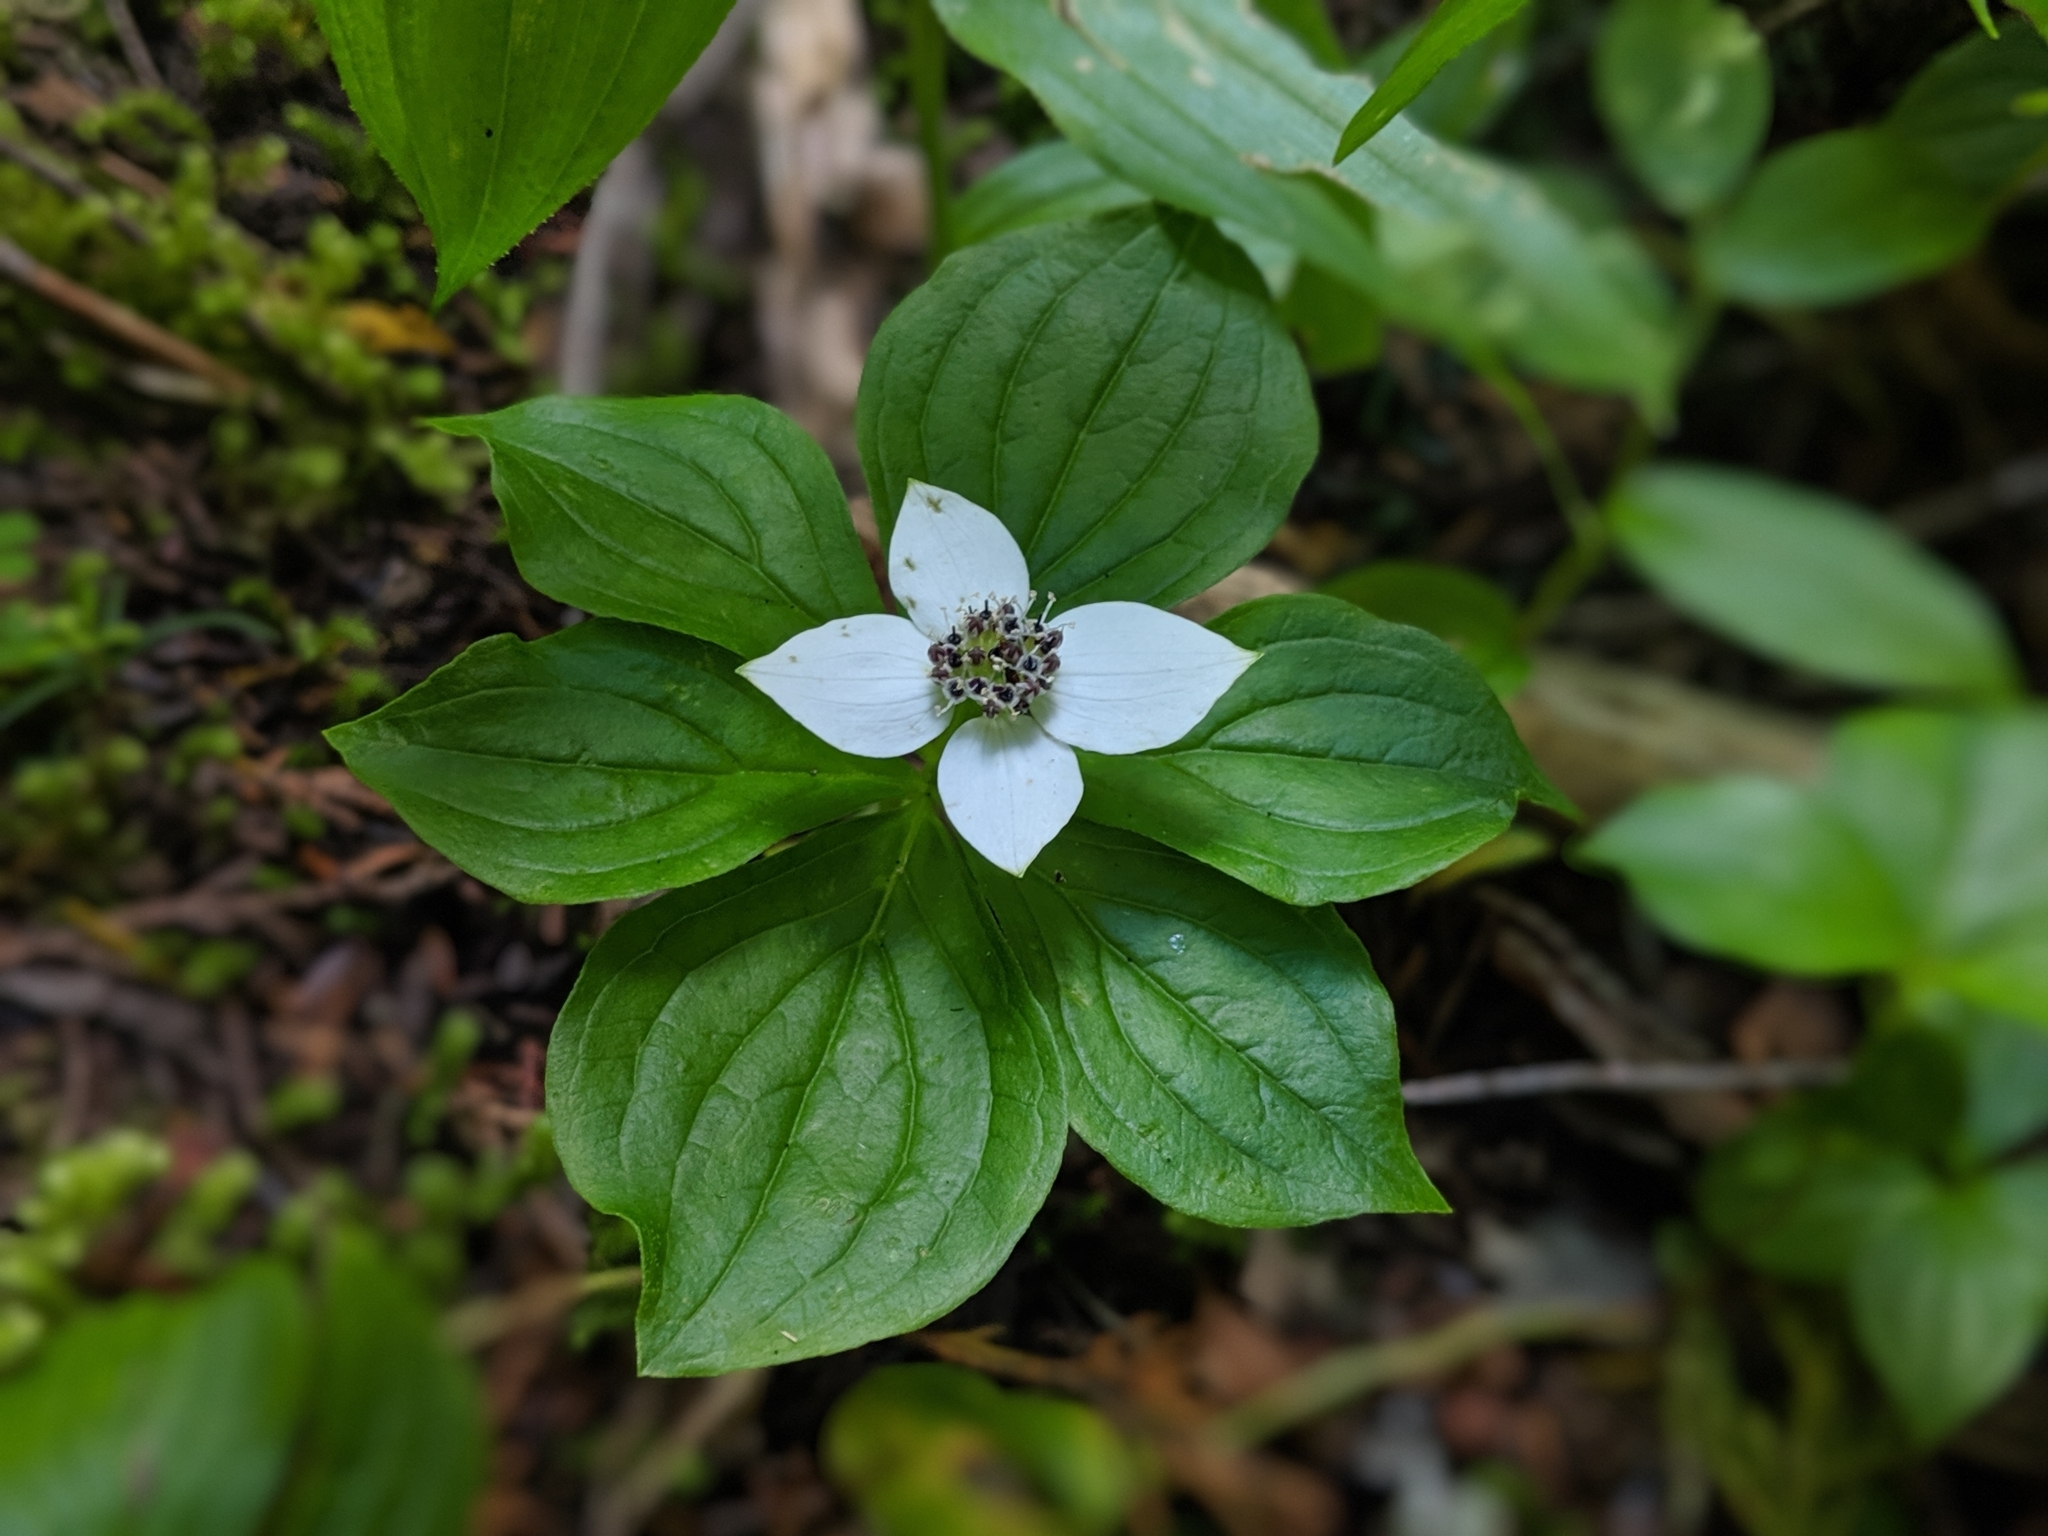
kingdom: Plantae
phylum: Tracheophyta
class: Magnoliopsida
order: Cornales
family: Cornaceae
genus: Cornus
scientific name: Cornus unalaschkensis
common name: Alaska bunchberry
